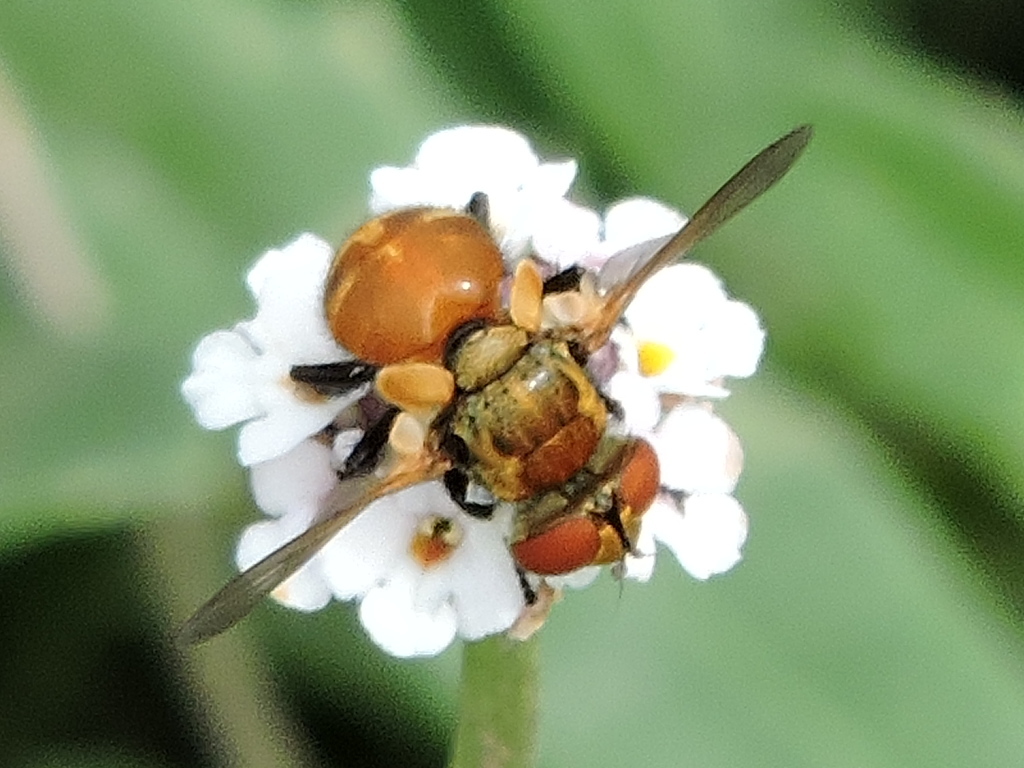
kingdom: Animalia
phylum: Arthropoda
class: Insecta
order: Diptera
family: Tachinidae
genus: Gymnoclytia
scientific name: Gymnoclytia unicolor
